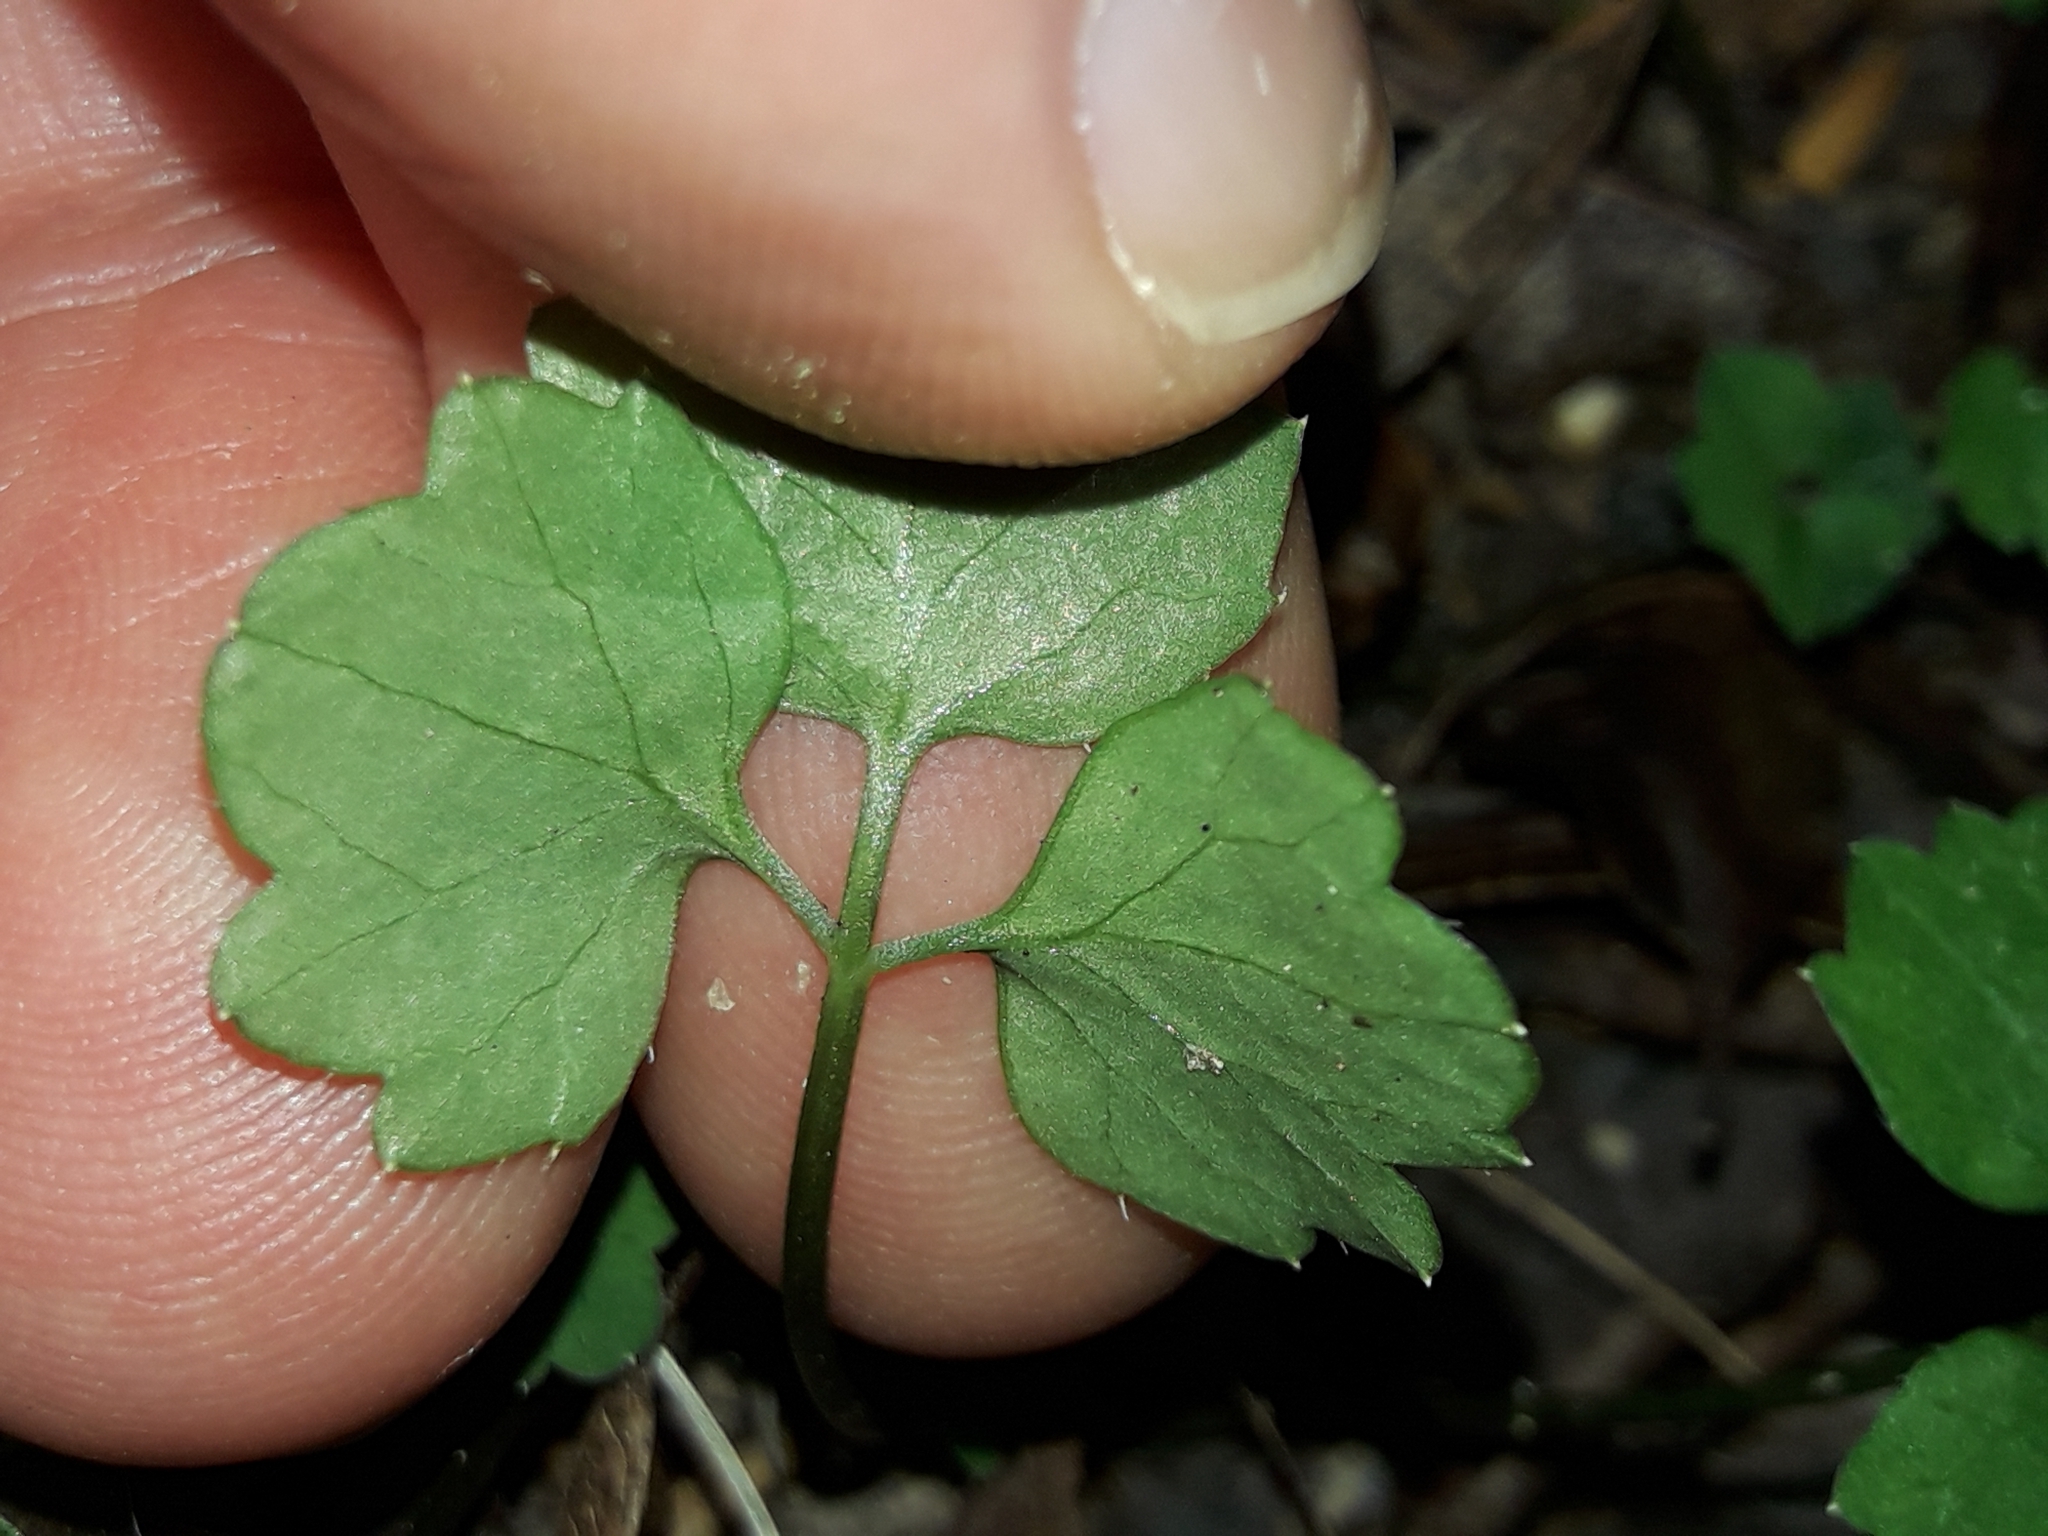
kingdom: Plantae
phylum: Tracheophyta
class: Magnoliopsida
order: Apiales
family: Apiaceae
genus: Azorella
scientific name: Azorella hookeri
